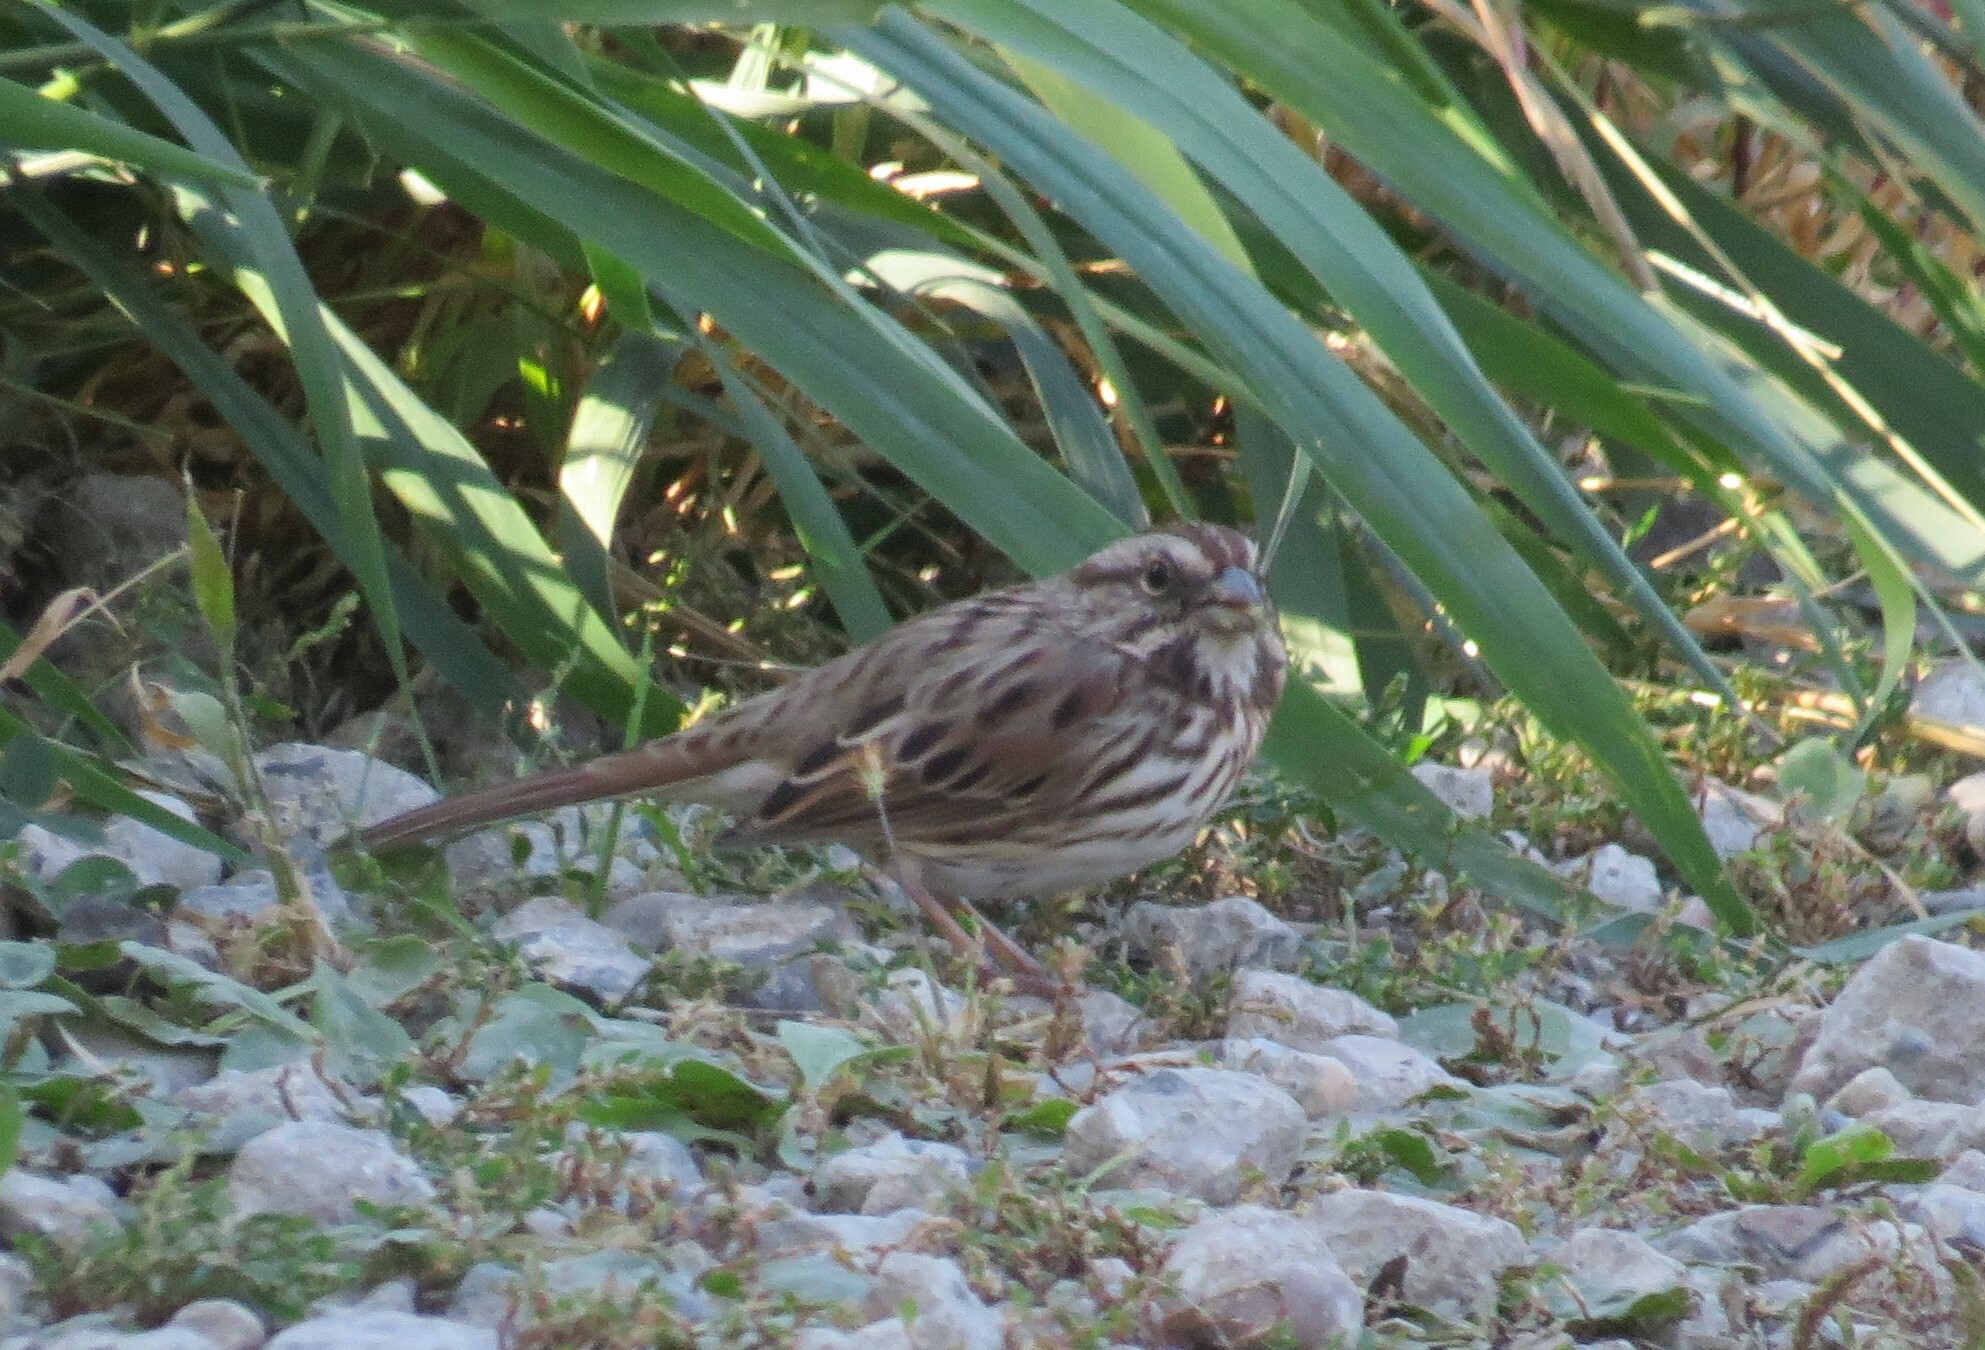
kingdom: Animalia
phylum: Chordata
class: Aves
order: Passeriformes
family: Passerellidae
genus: Melospiza
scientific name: Melospiza melodia
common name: Song sparrow
